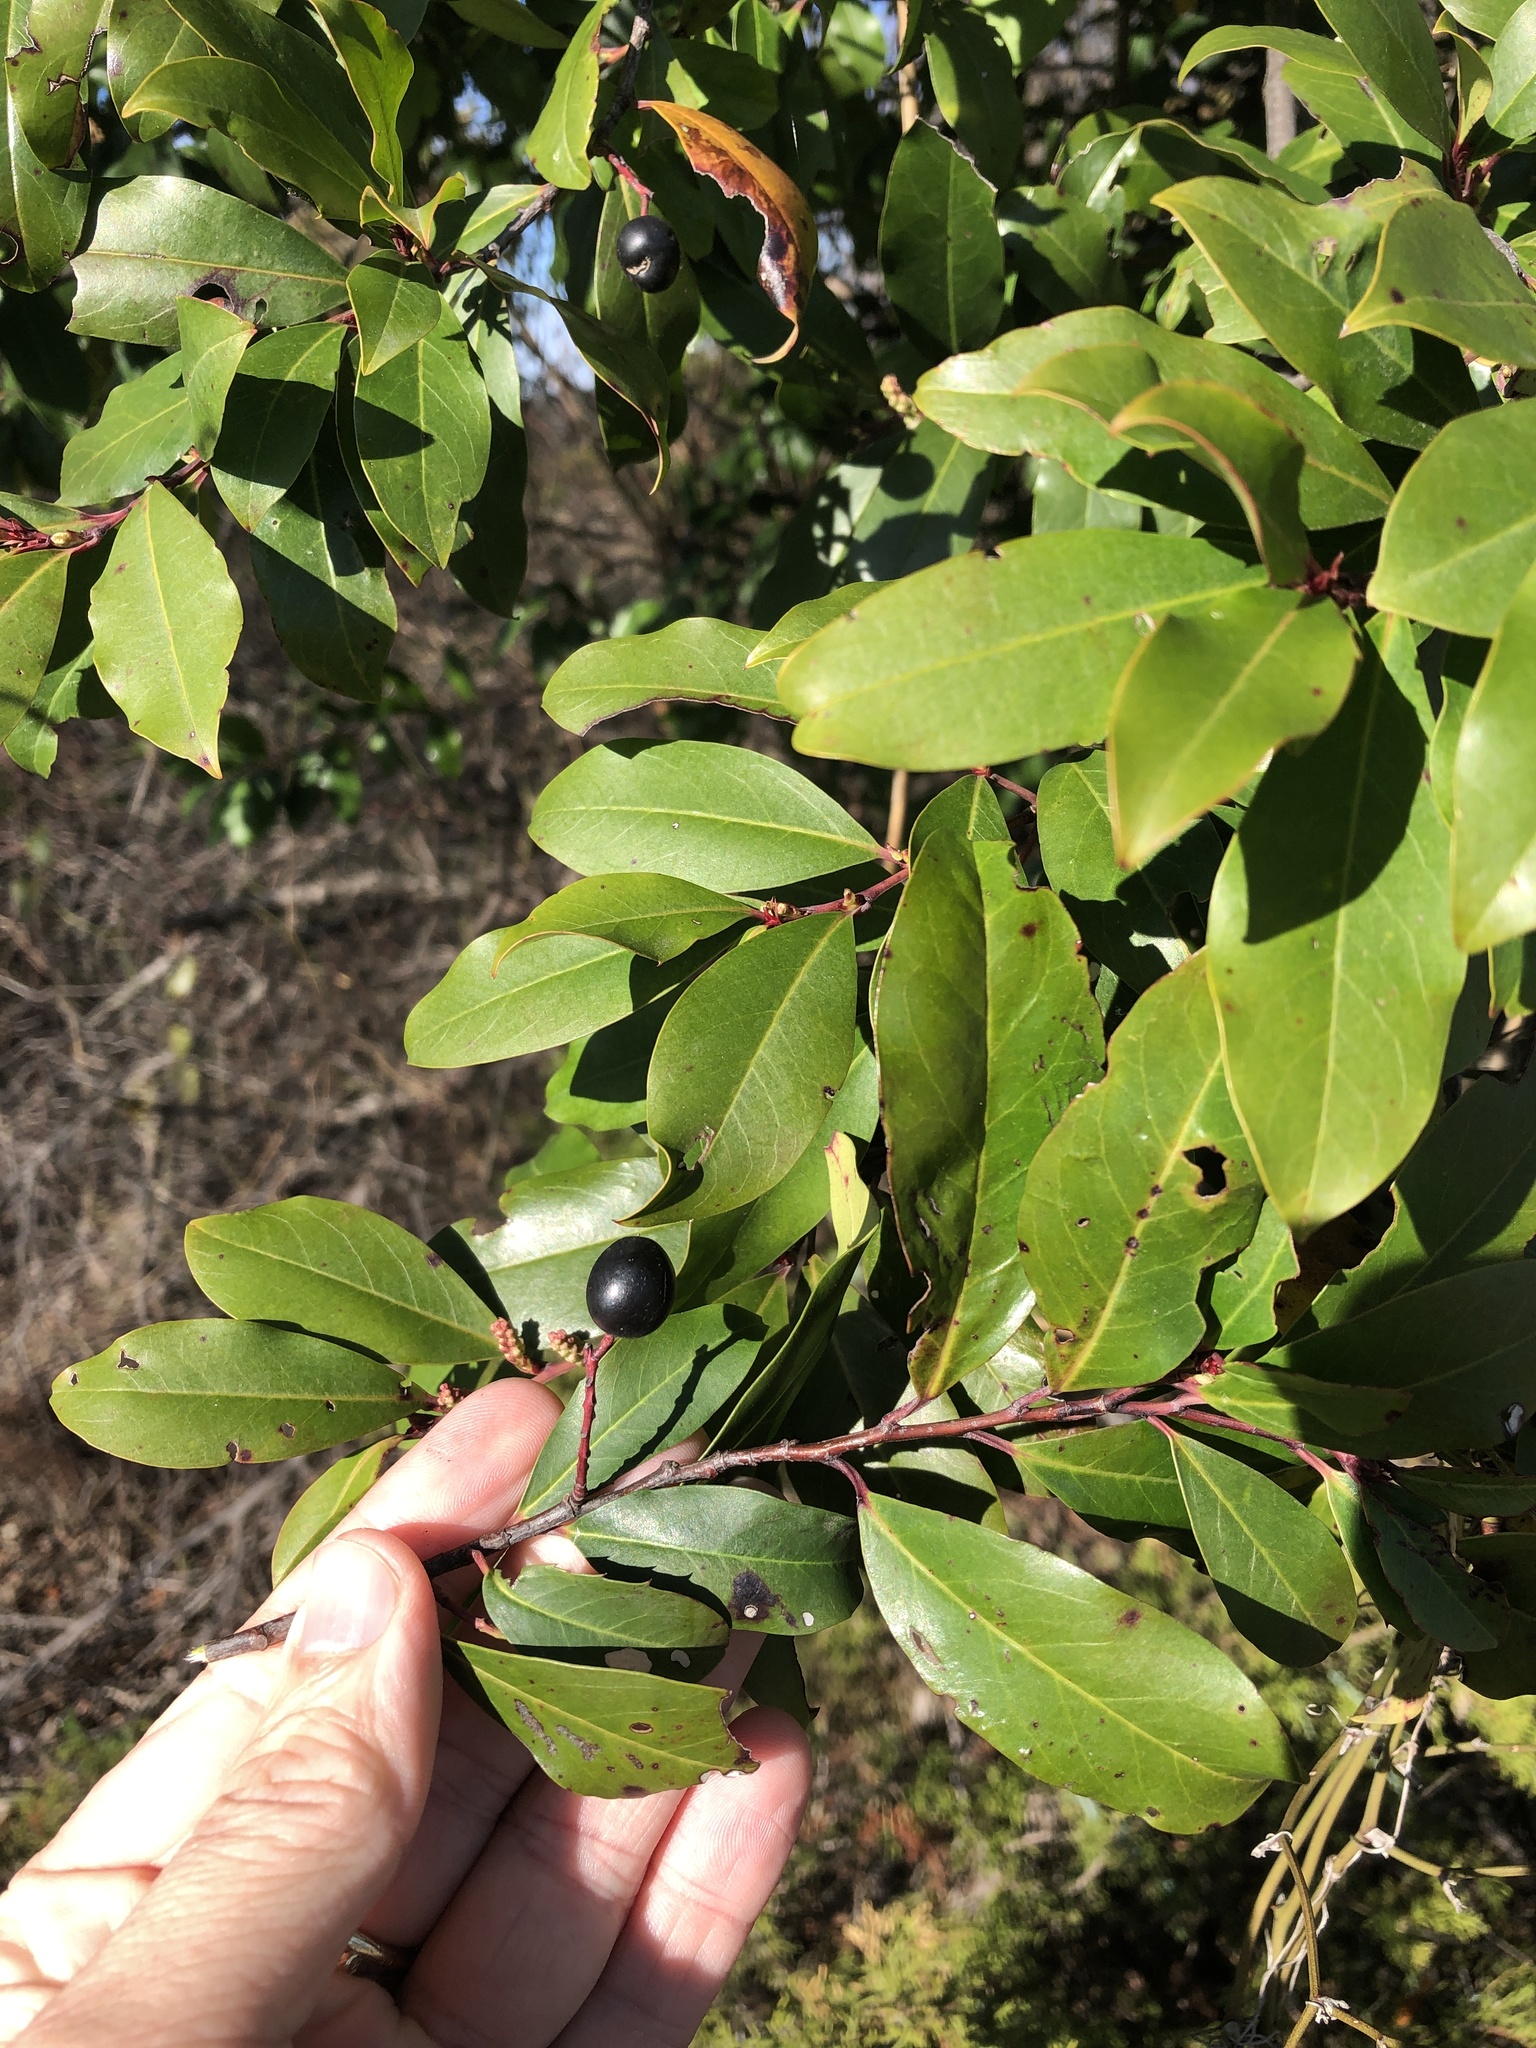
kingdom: Plantae
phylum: Tracheophyta
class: Magnoliopsida
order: Rosales
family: Rosaceae
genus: Prunus
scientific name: Prunus caroliniana
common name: Carolina laurel cherry
